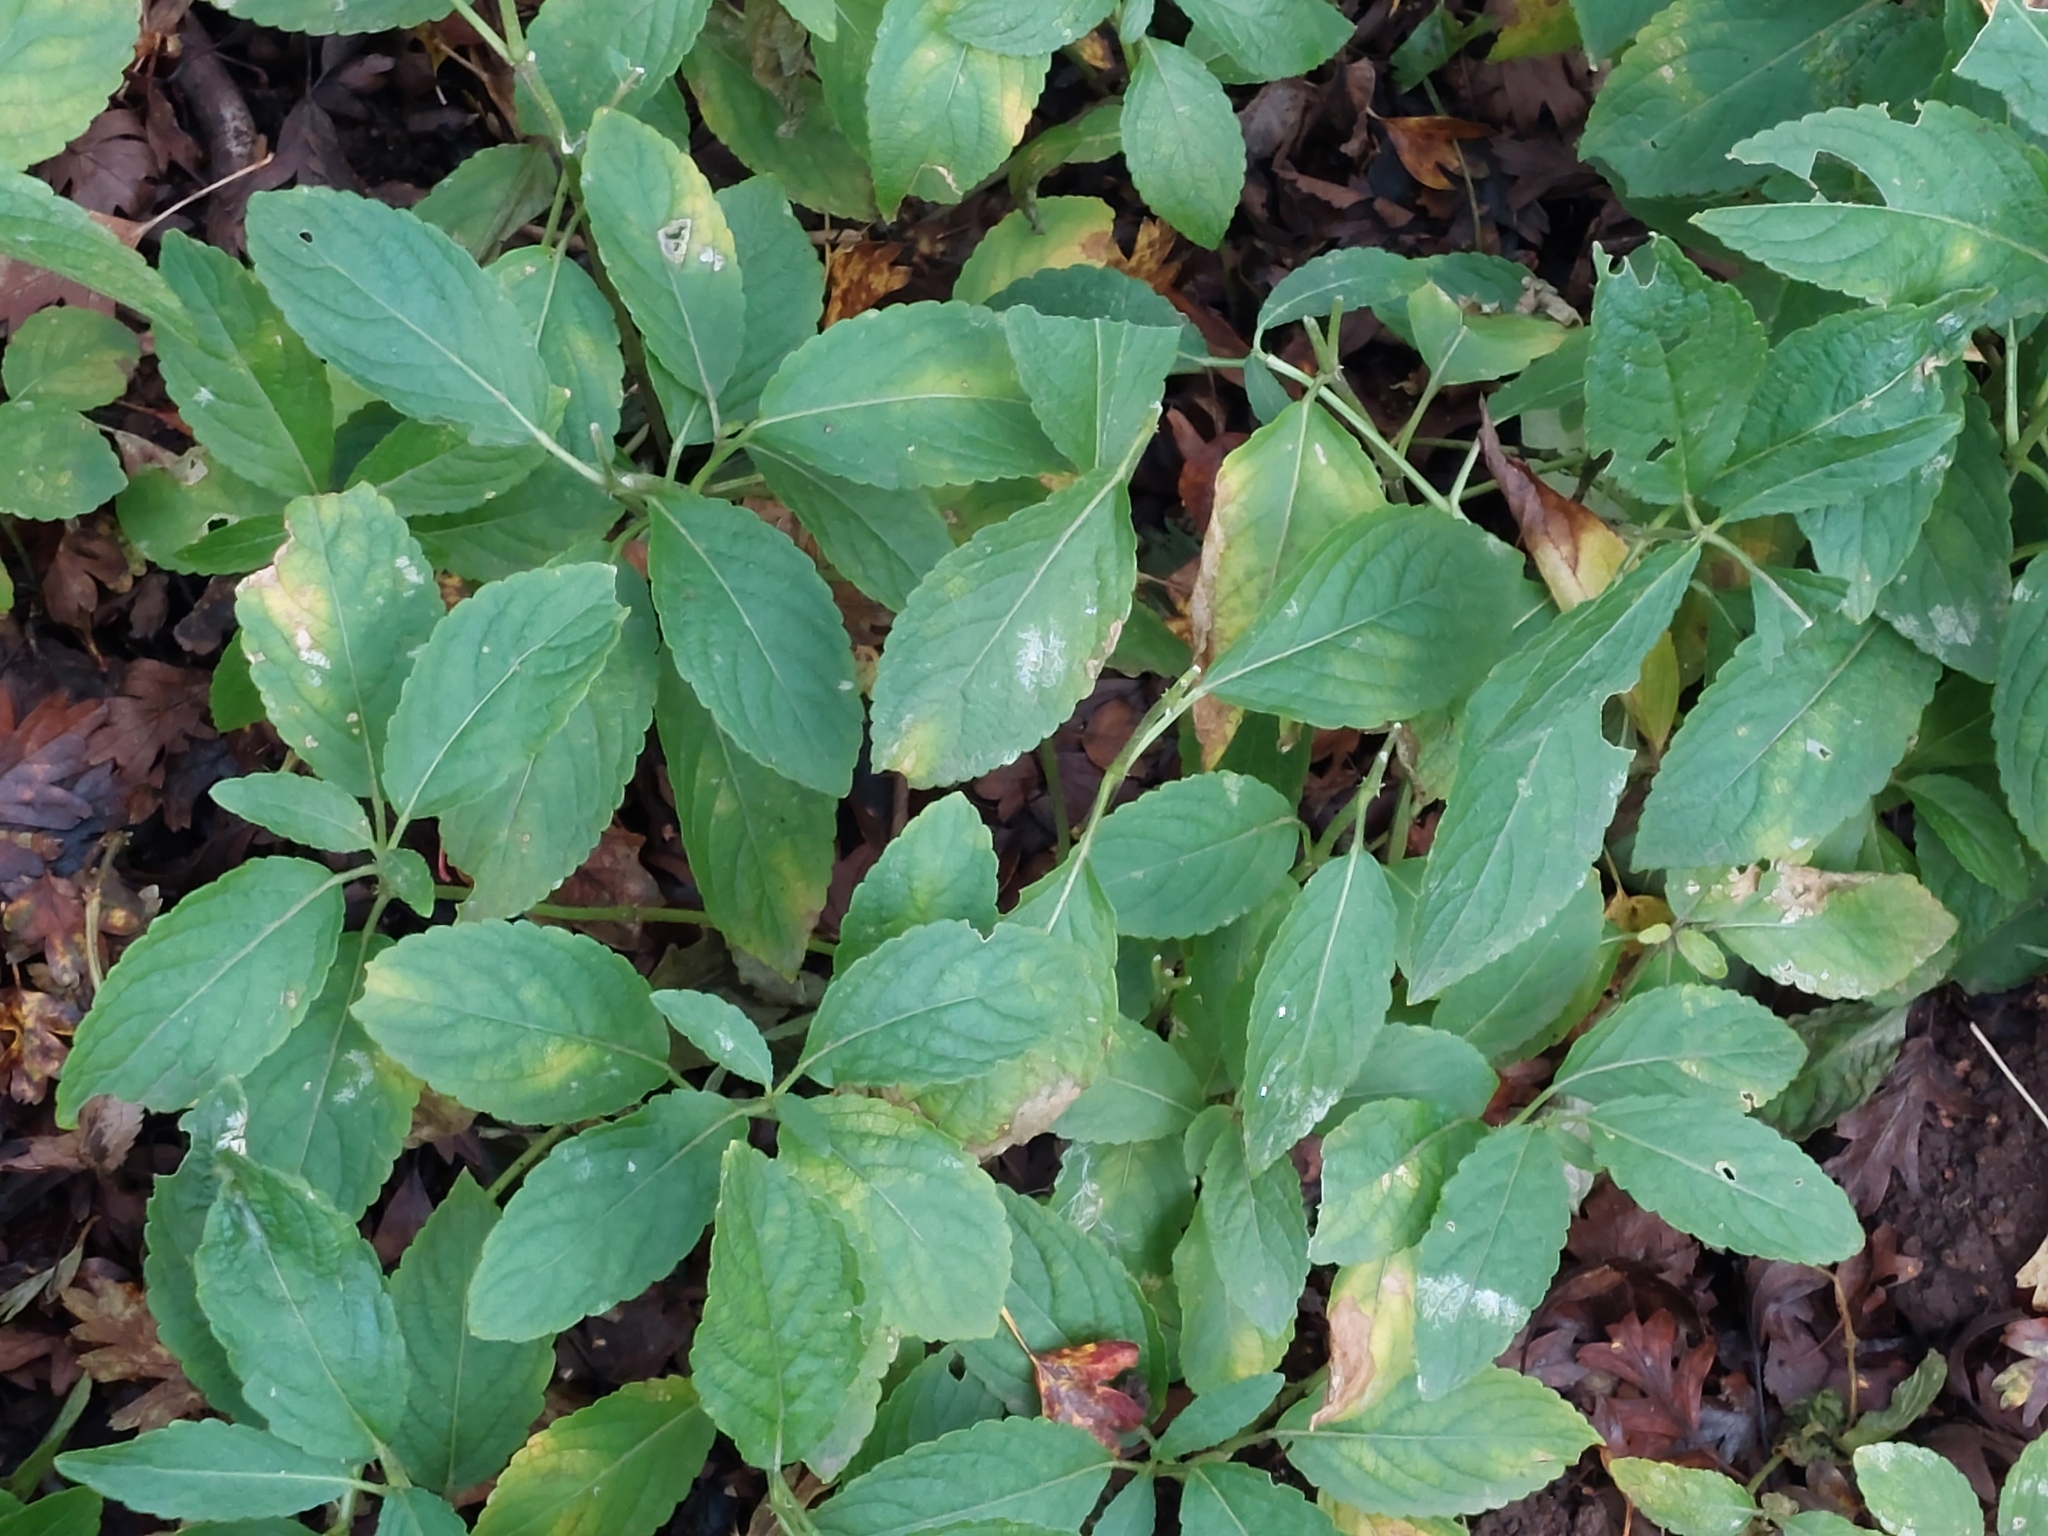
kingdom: Plantae
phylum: Tracheophyta
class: Magnoliopsida
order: Malpighiales
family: Euphorbiaceae
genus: Mercurialis
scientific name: Mercurialis perennis
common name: Dog mercury
